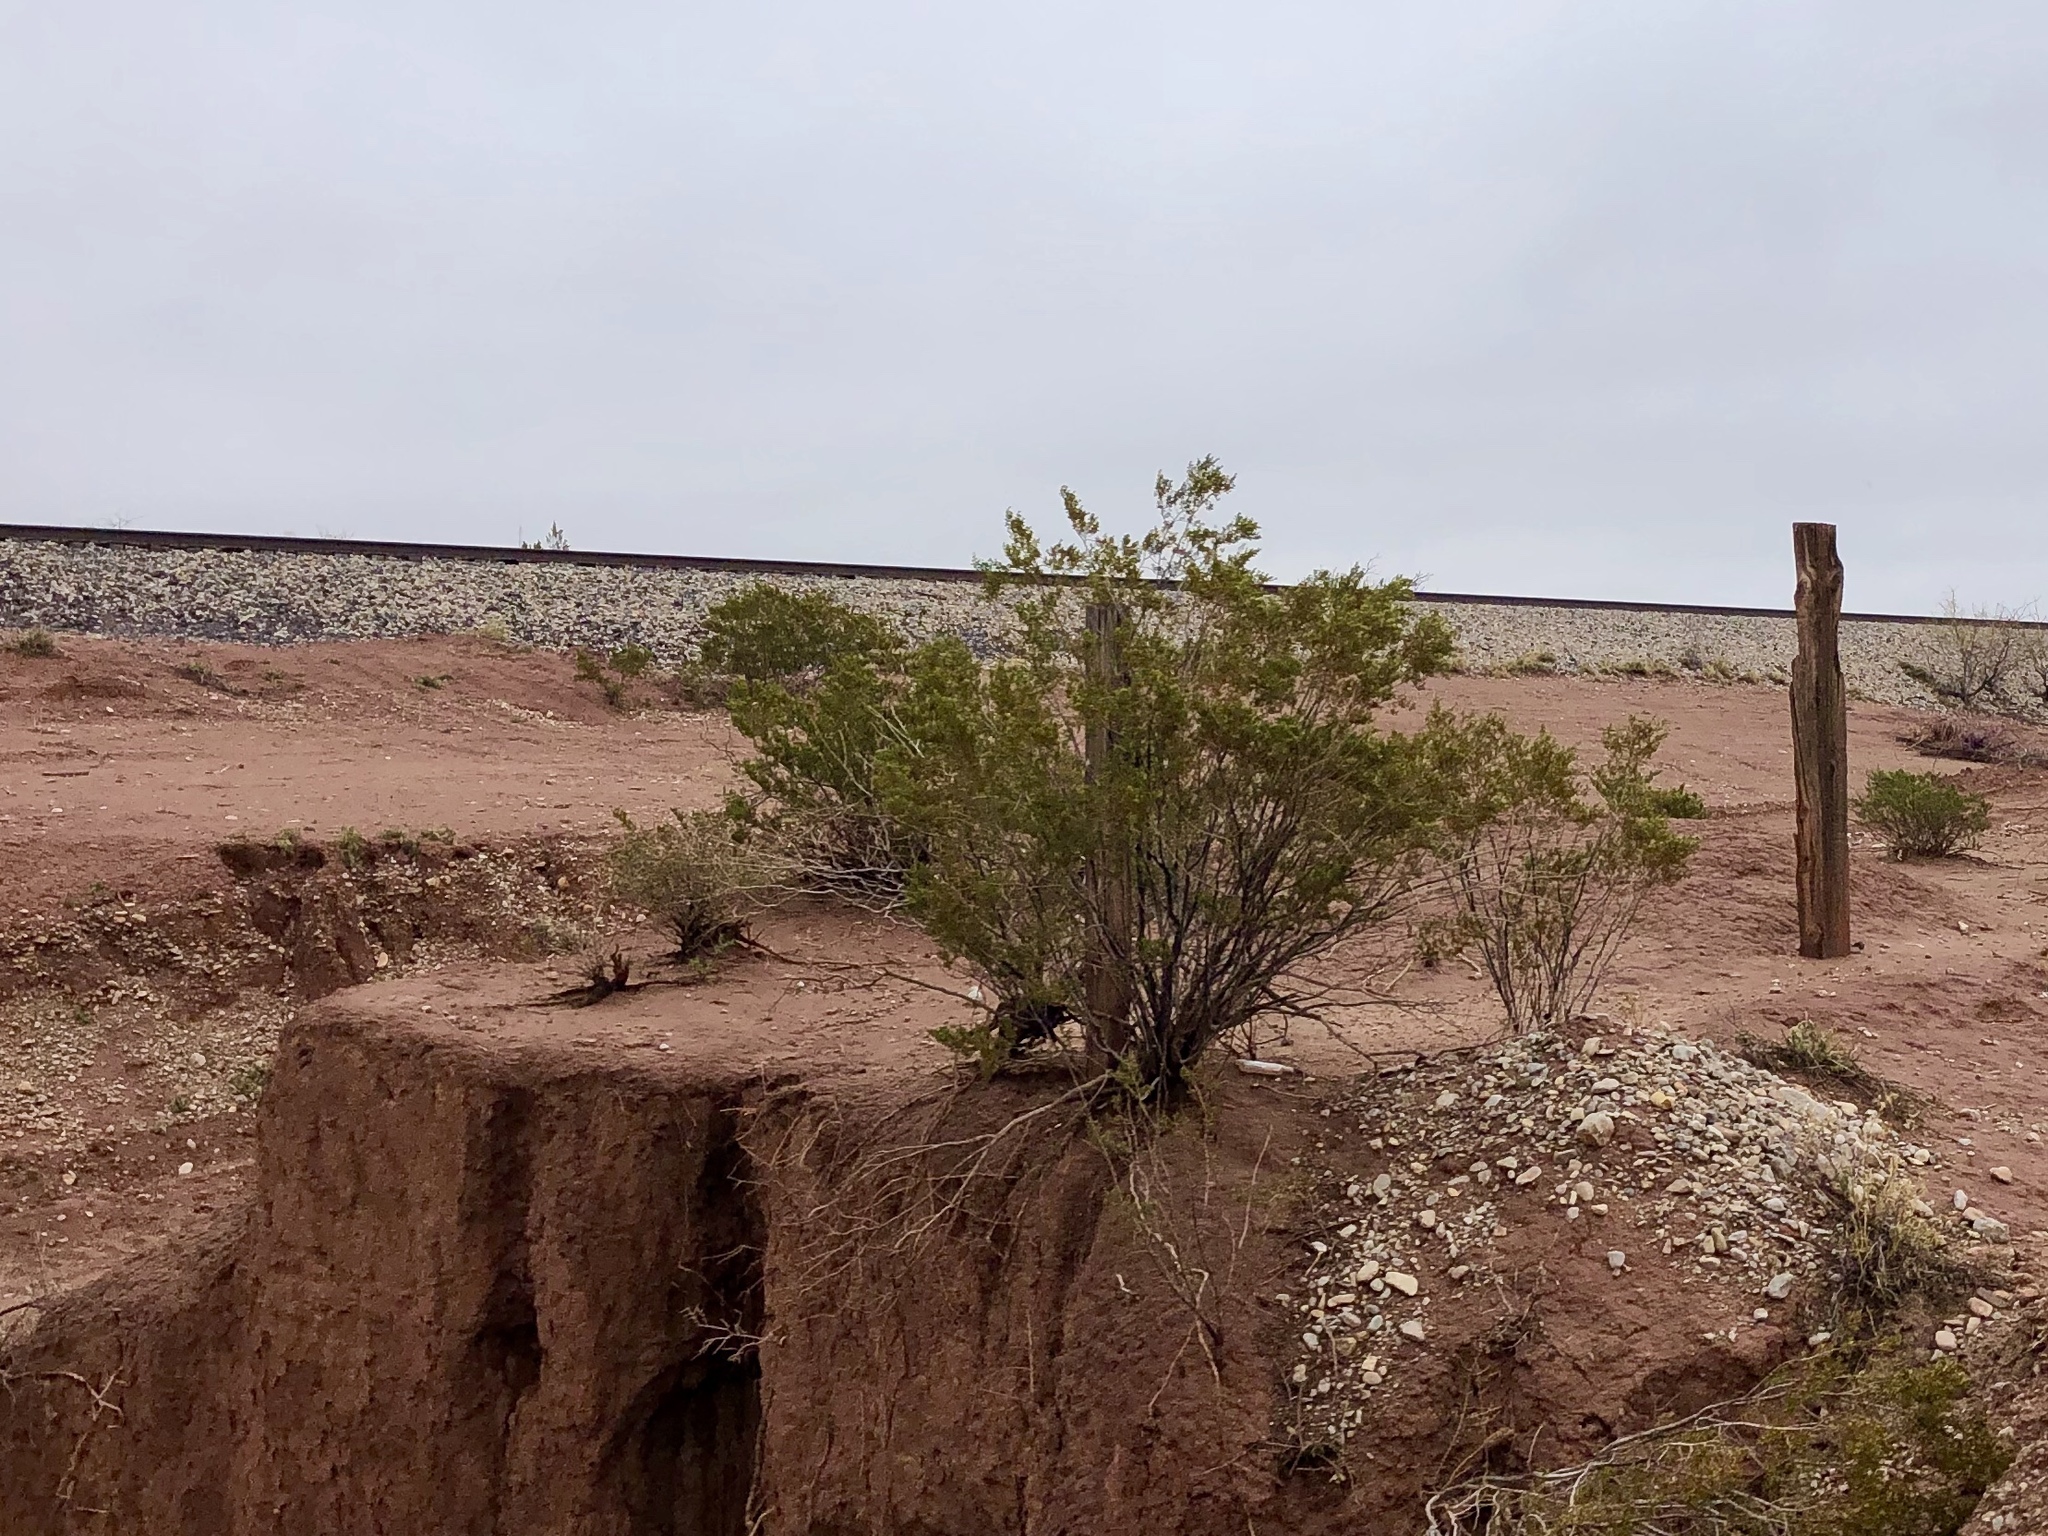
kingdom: Plantae
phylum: Tracheophyta
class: Magnoliopsida
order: Zygophyllales
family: Zygophyllaceae
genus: Larrea
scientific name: Larrea tridentata
